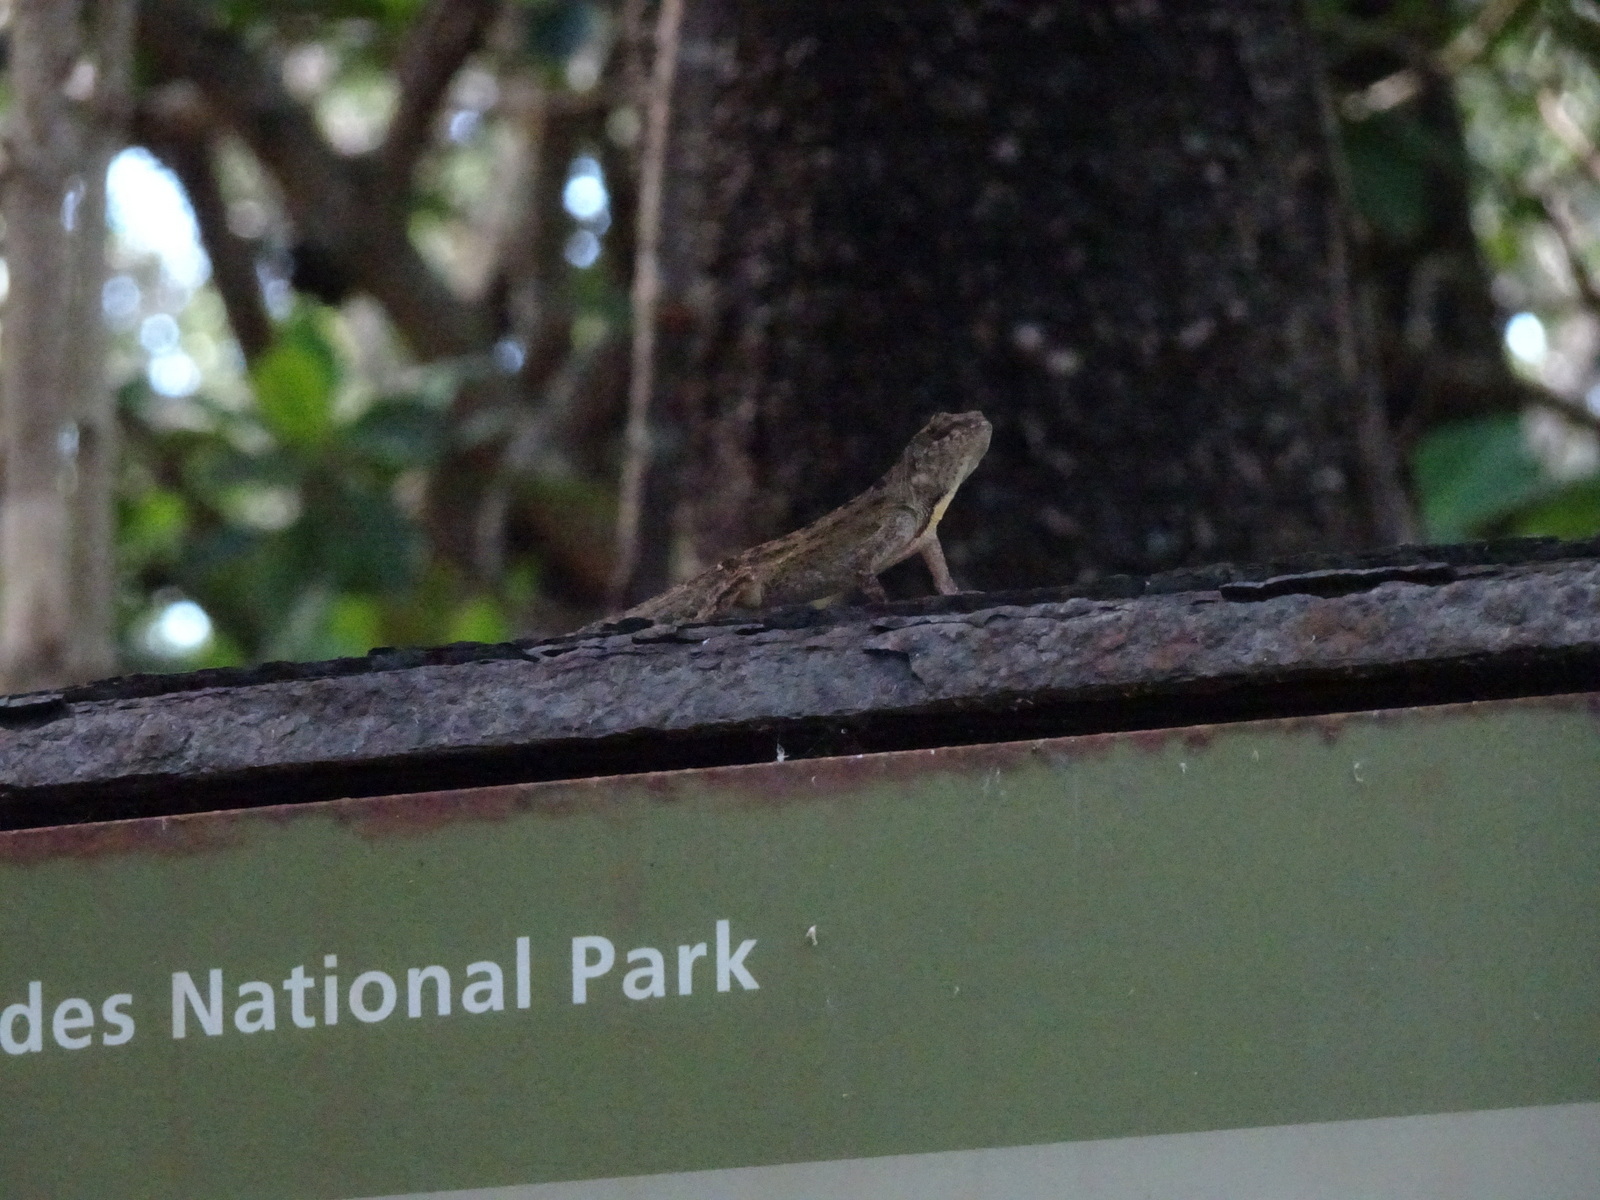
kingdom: Animalia
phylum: Chordata
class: Squamata
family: Dactyloidae
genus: Anolis
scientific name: Anolis sagrei
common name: Brown anole
